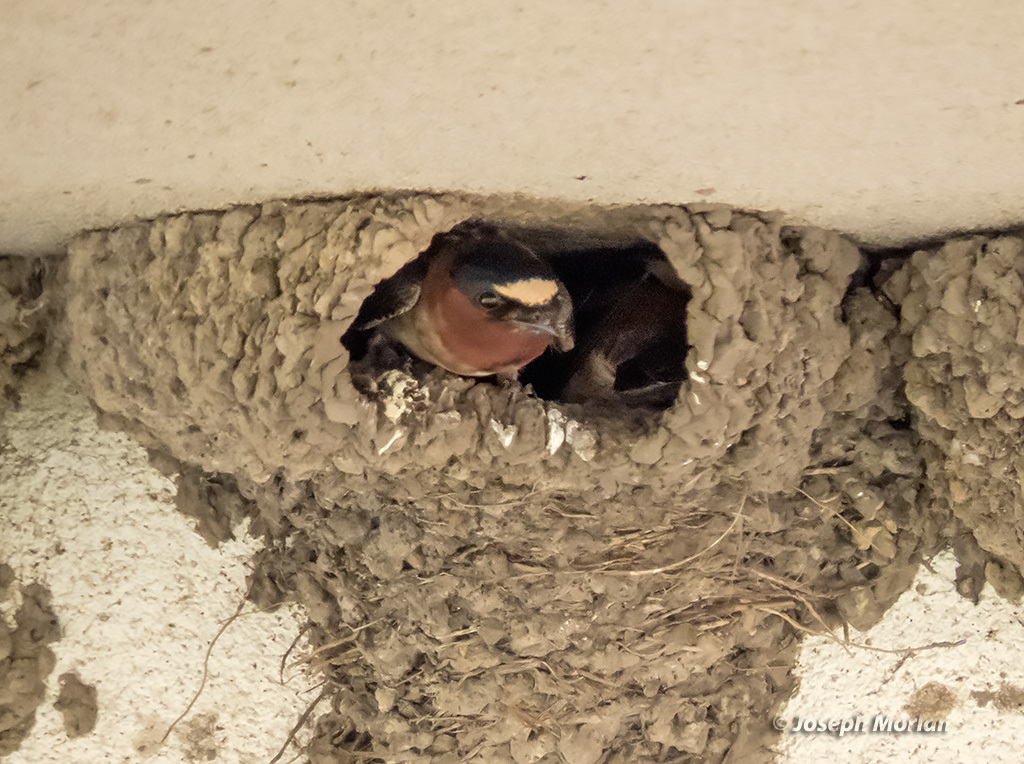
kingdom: Animalia
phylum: Chordata
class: Aves
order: Passeriformes
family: Hirundinidae
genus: Petrochelidon
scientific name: Petrochelidon pyrrhonota
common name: American cliff swallow
